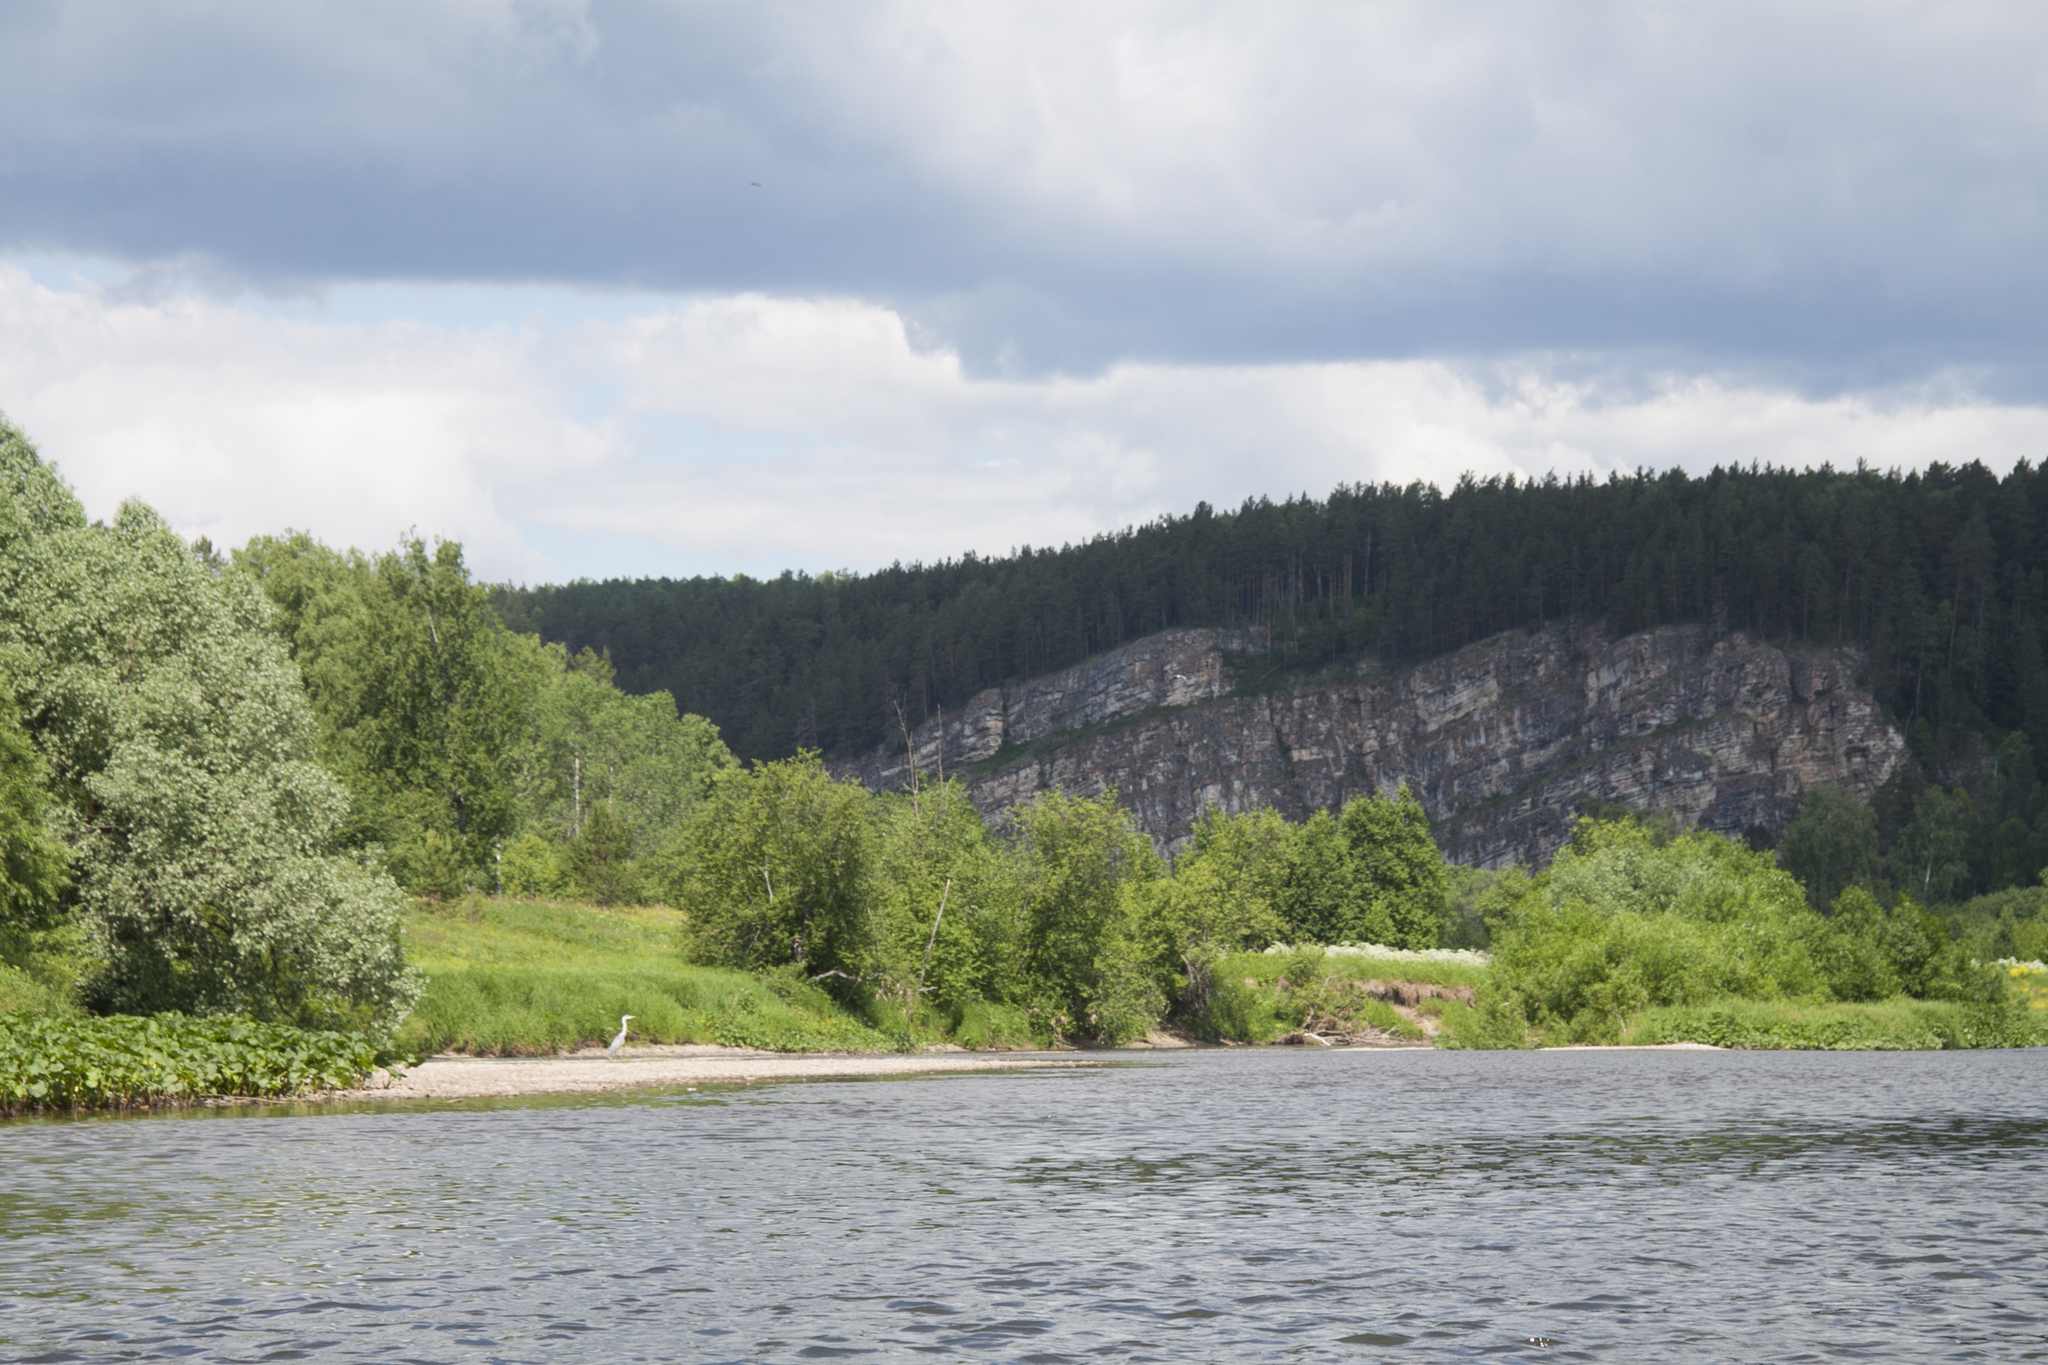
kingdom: Animalia
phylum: Chordata
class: Aves
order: Pelecaniformes
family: Ardeidae
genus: Ardea
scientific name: Ardea cinerea
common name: Grey heron
